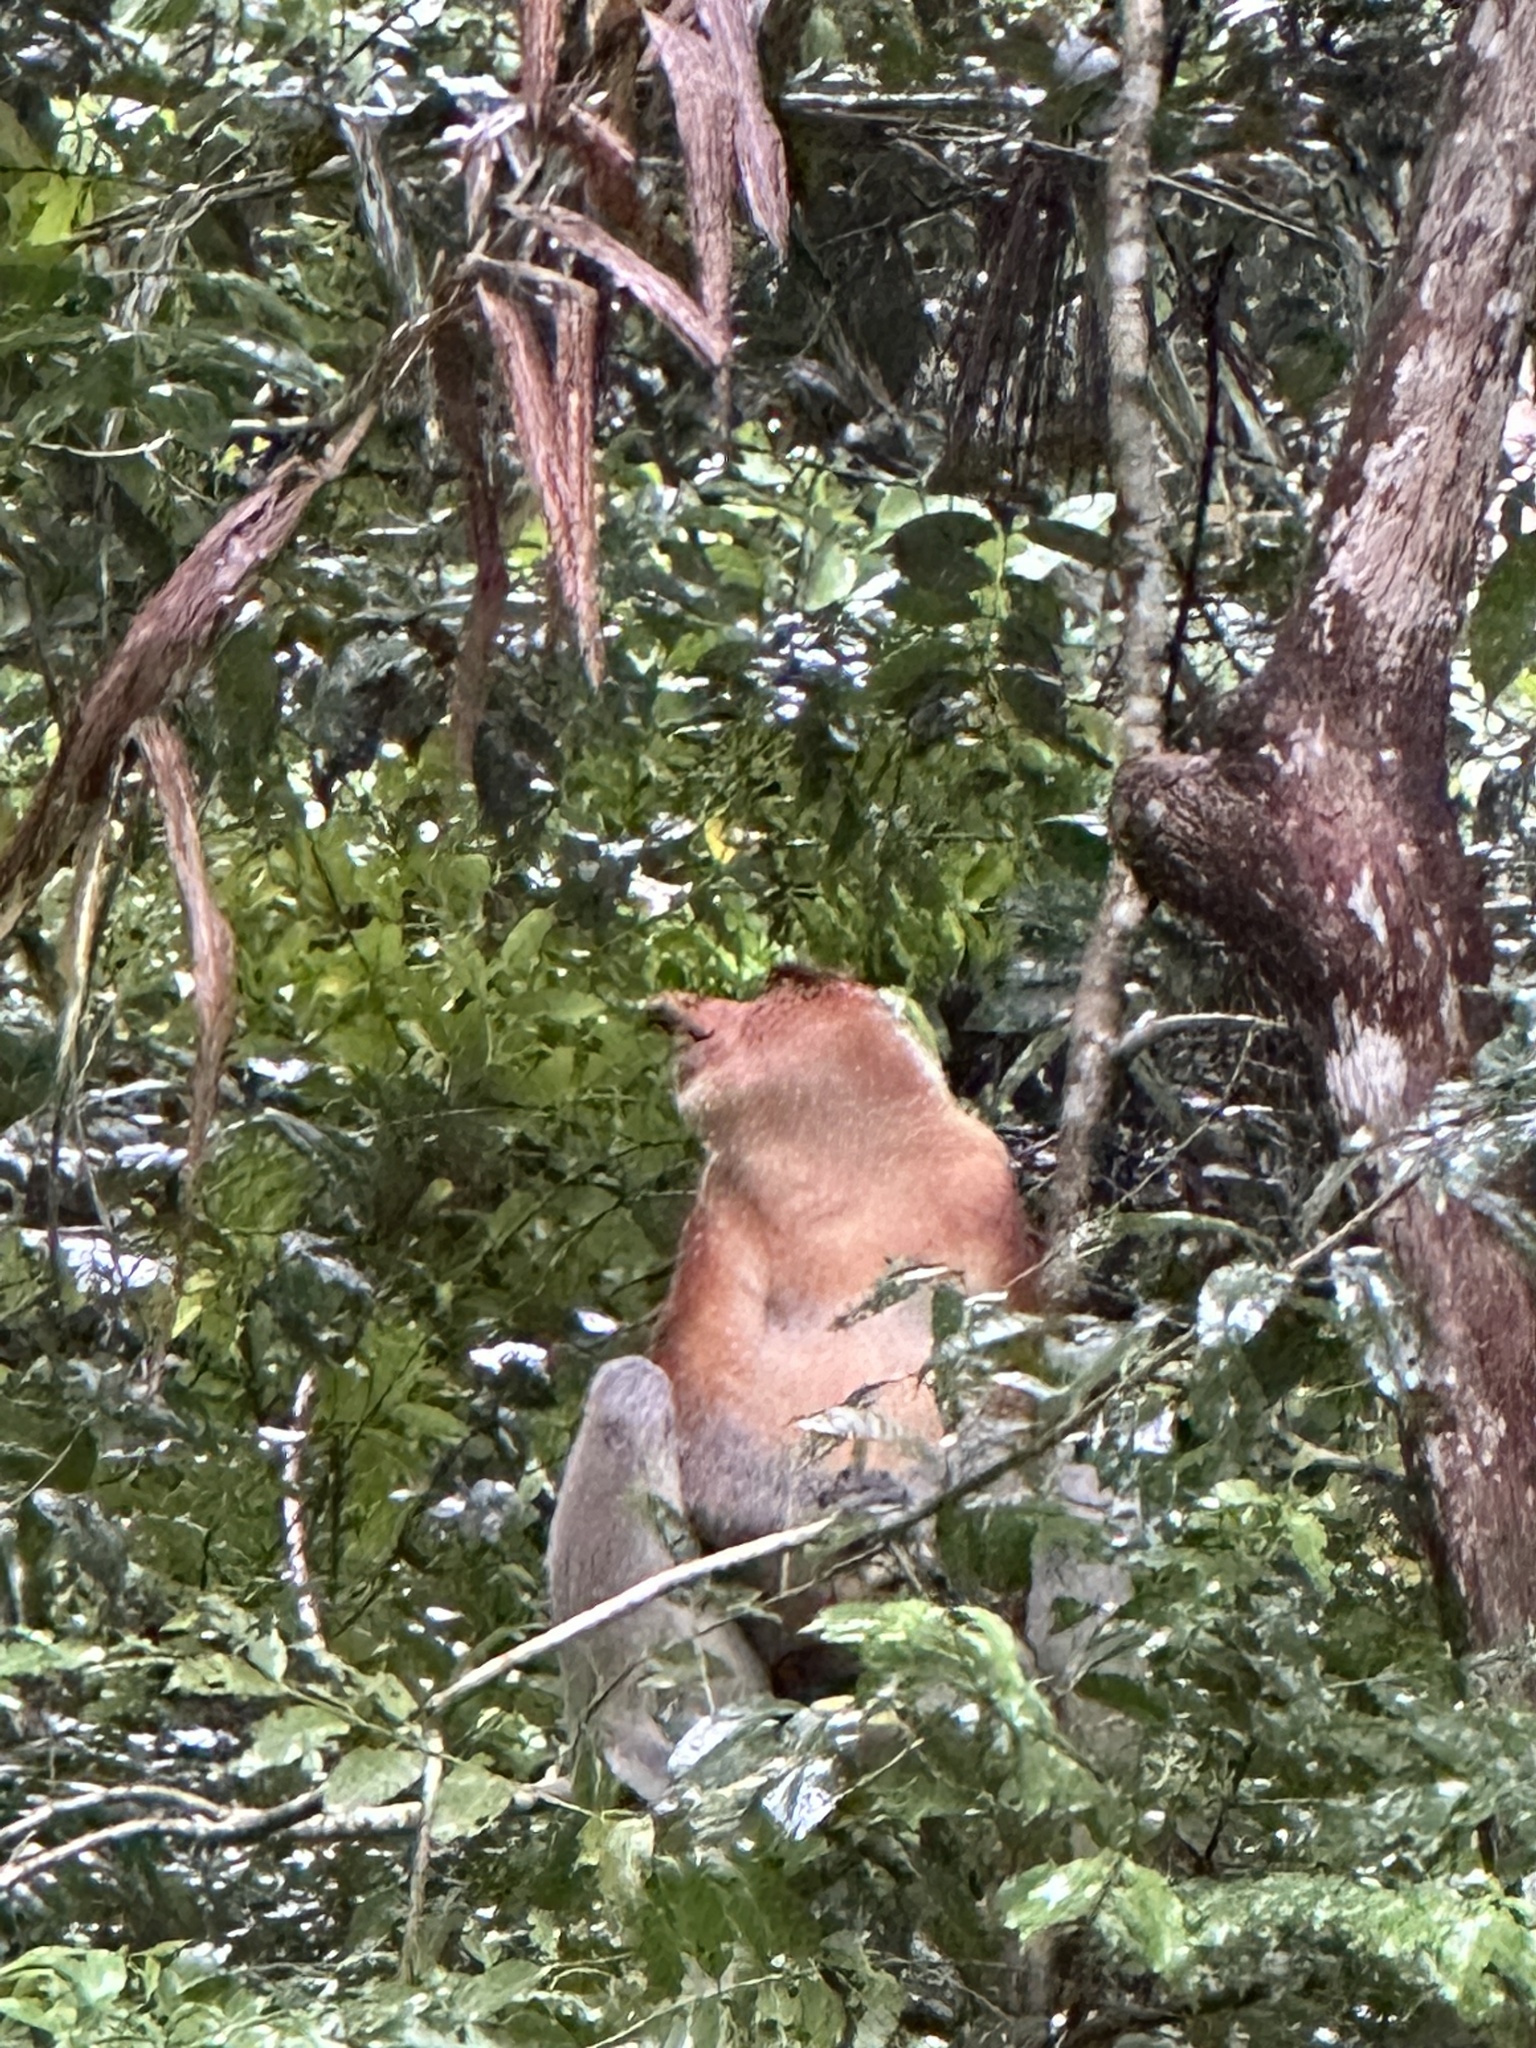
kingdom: Animalia
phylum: Chordata
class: Mammalia
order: Primates
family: Cercopithecidae
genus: Nasalis
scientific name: Nasalis larvatus
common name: Proboscis monkey
